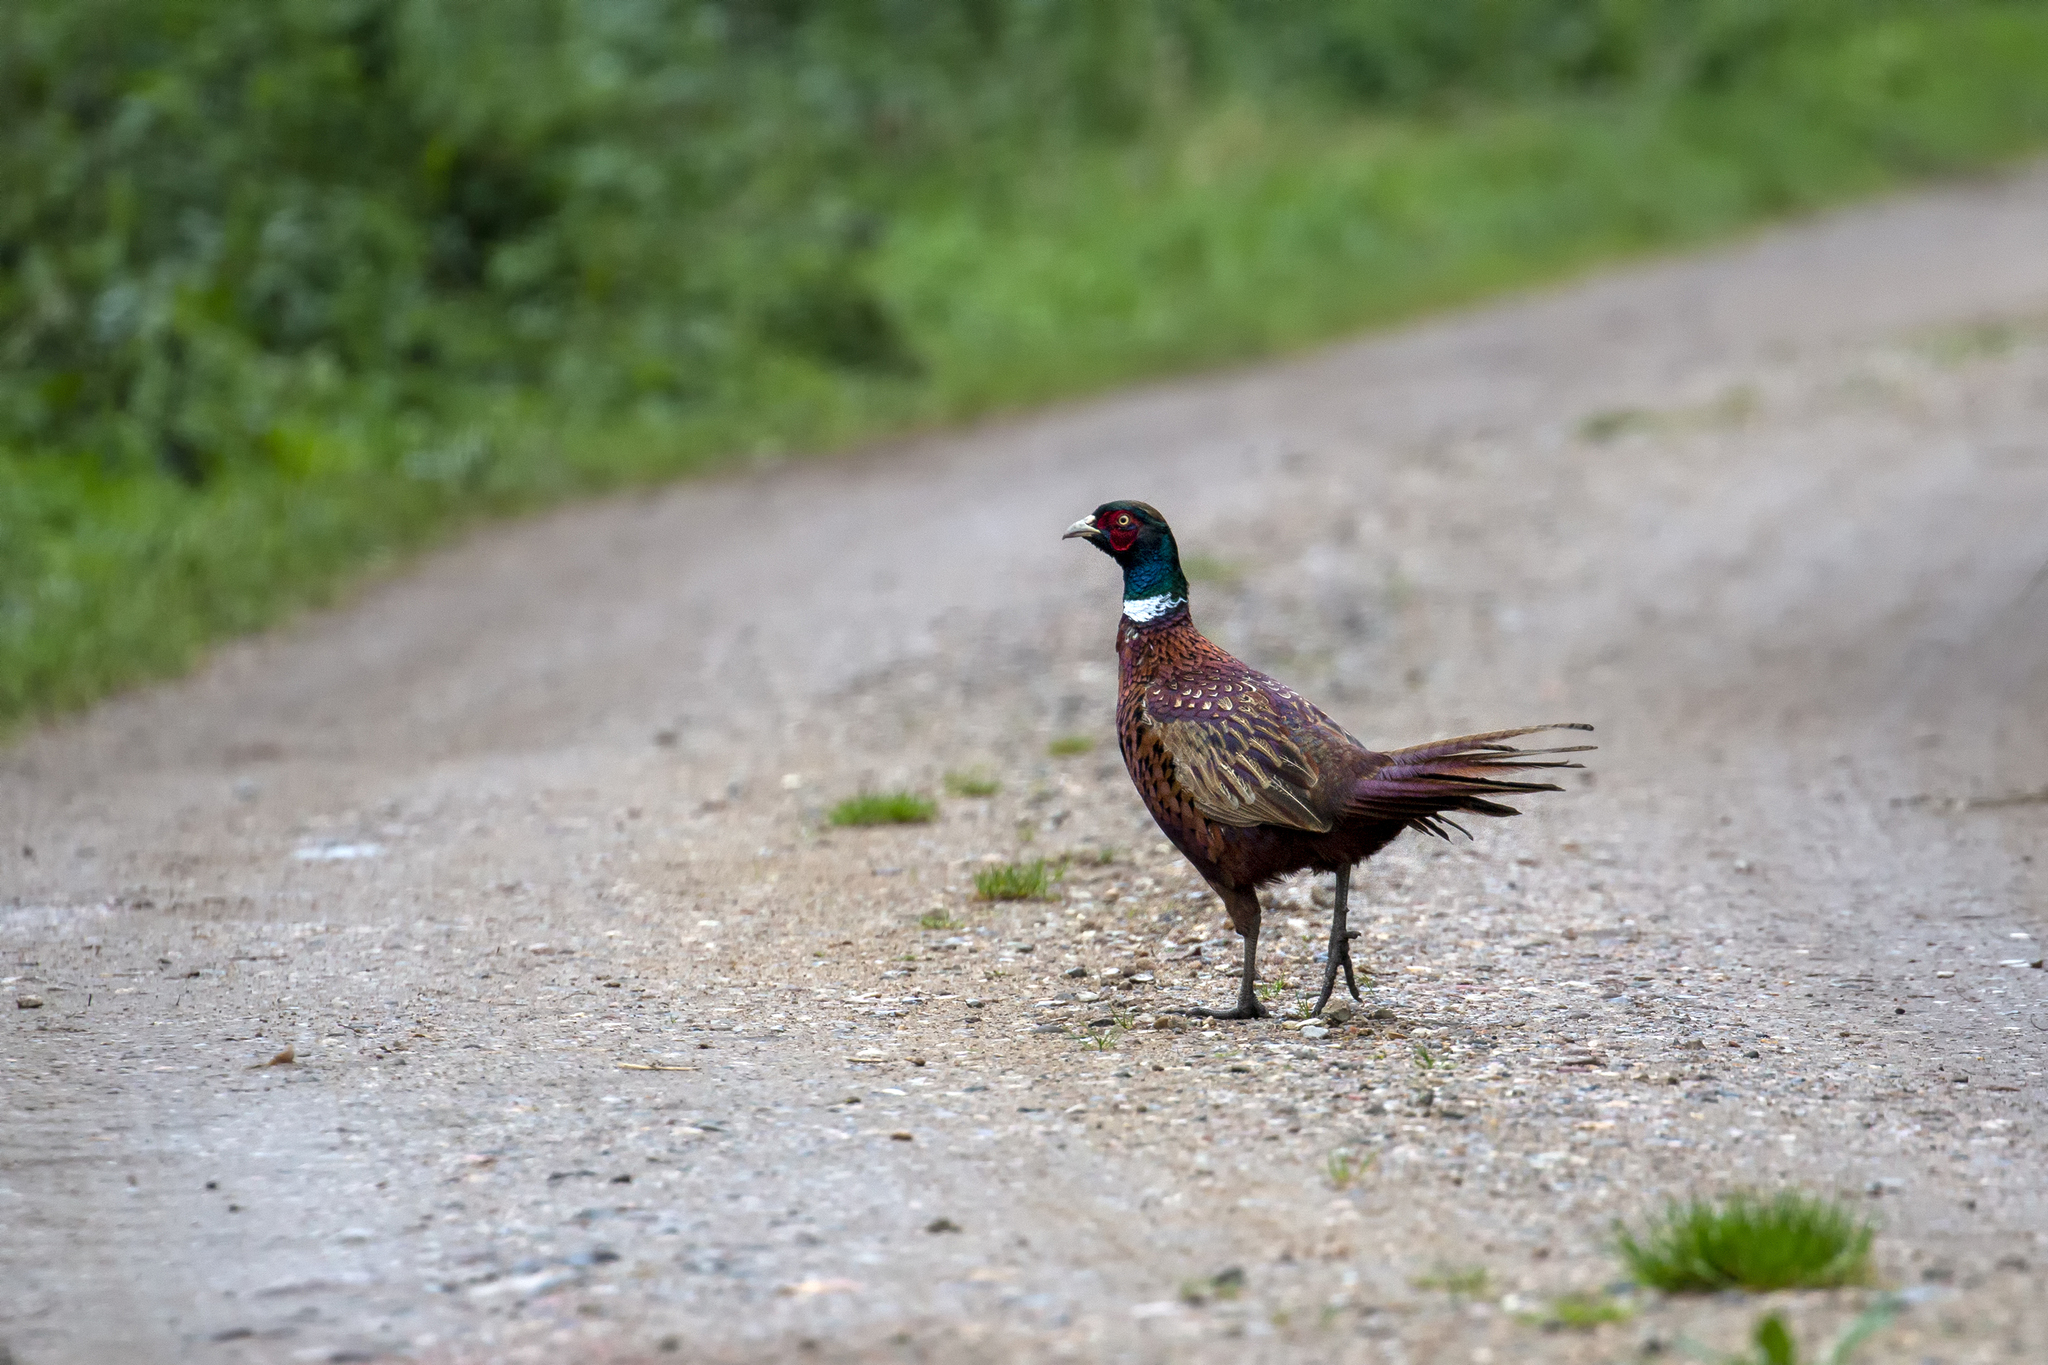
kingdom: Animalia
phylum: Chordata
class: Aves
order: Galliformes
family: Phasianidae
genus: Phasianus
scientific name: Phasianus colchicus
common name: Common pheasant
